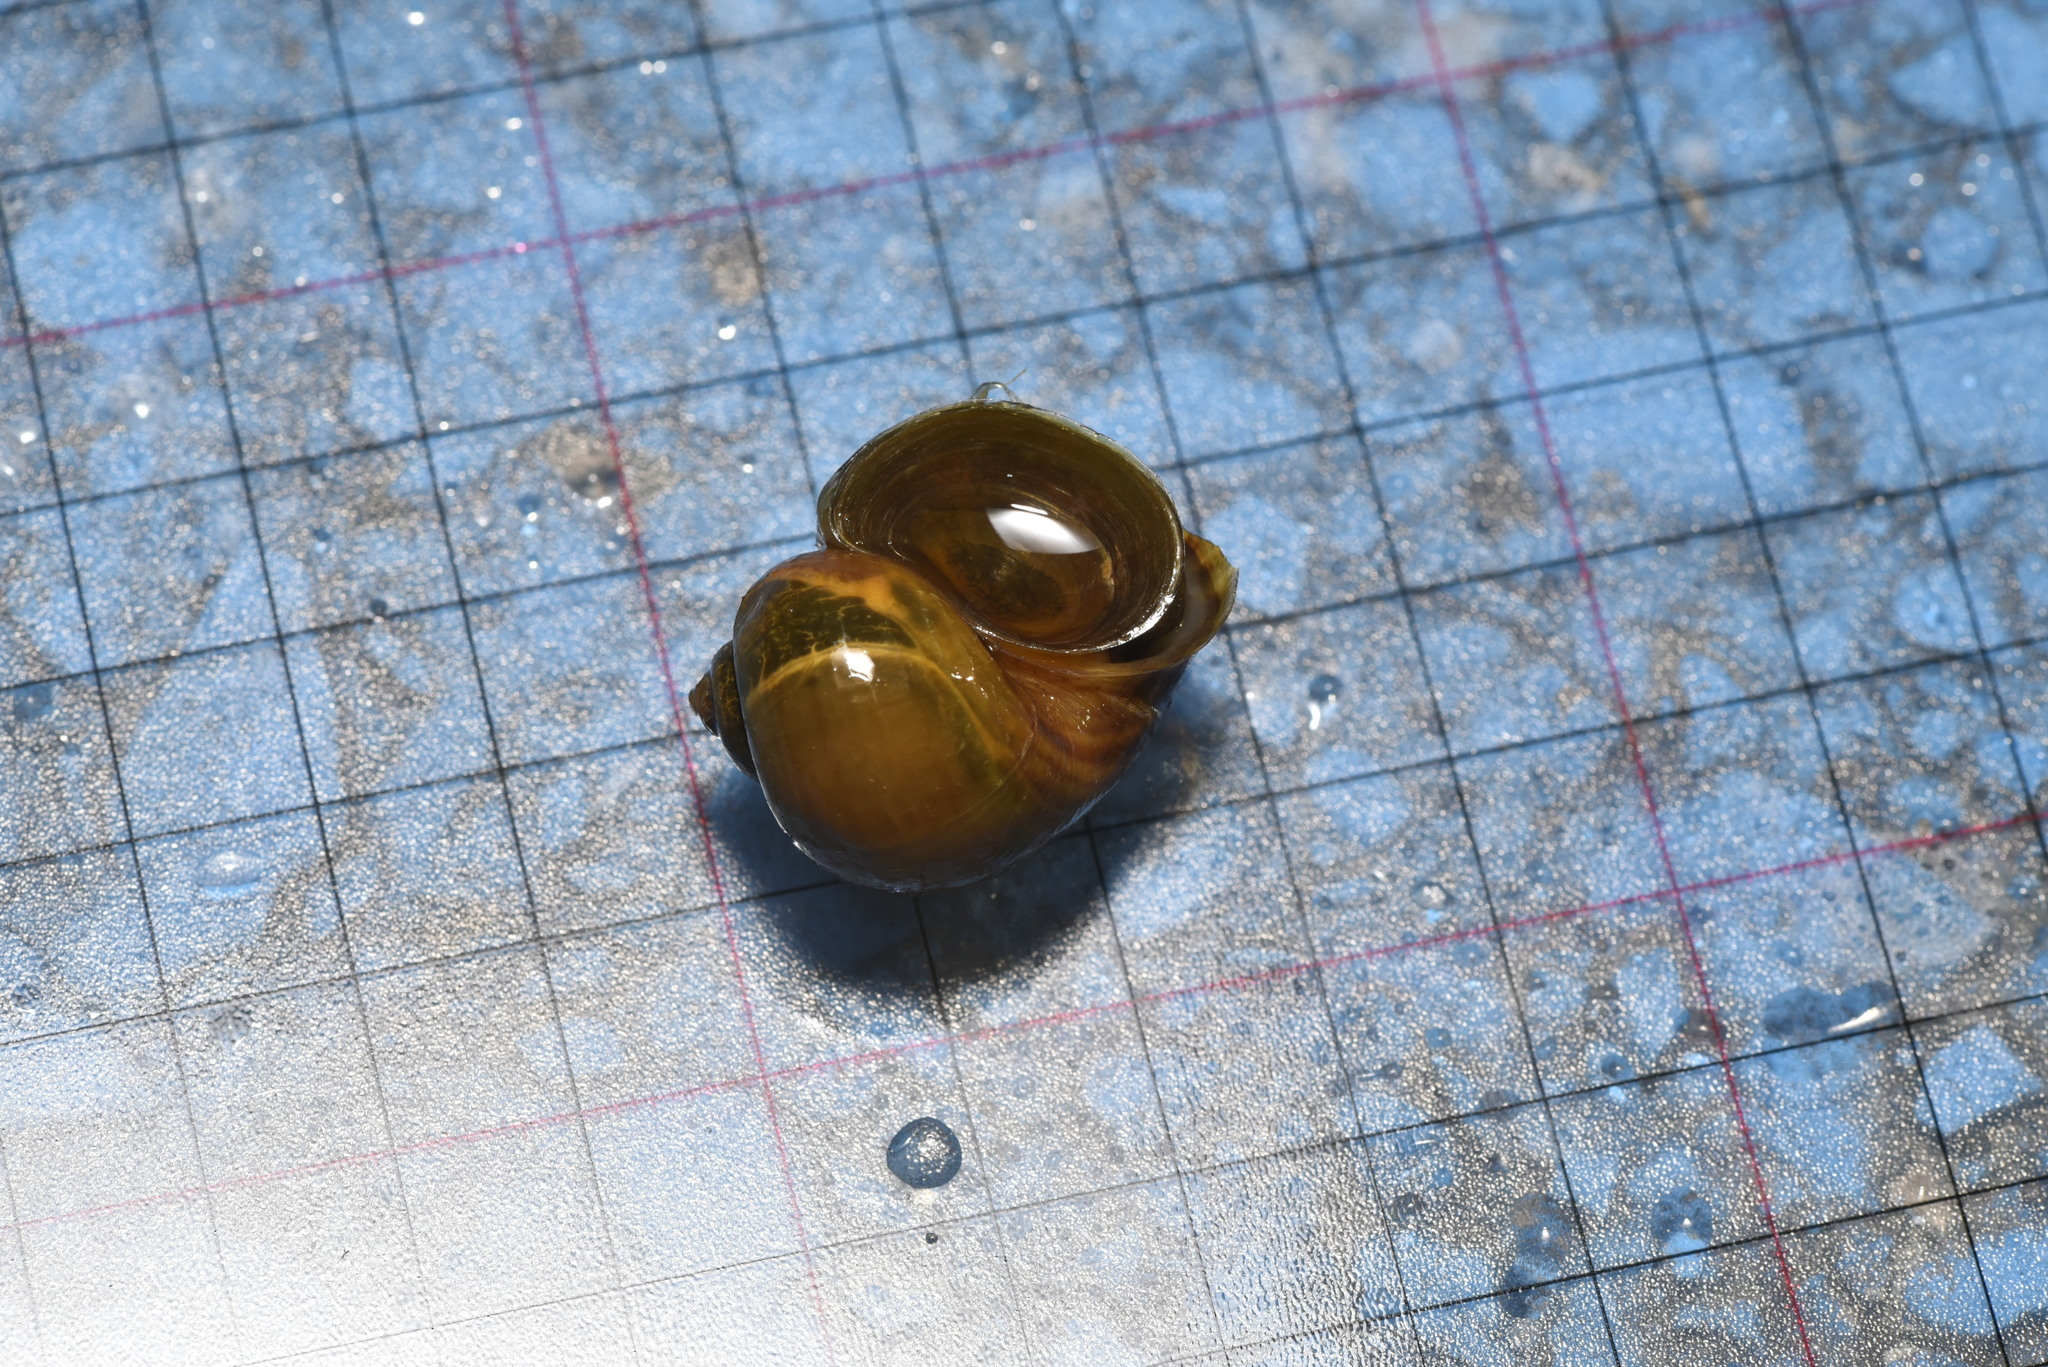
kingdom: Animalia
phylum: Mollusca
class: Gastropoda
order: Architaenioglossa
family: Ampullariidae
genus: Pomacea
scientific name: Pomacea canaliculata
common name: Channeled applesnail
